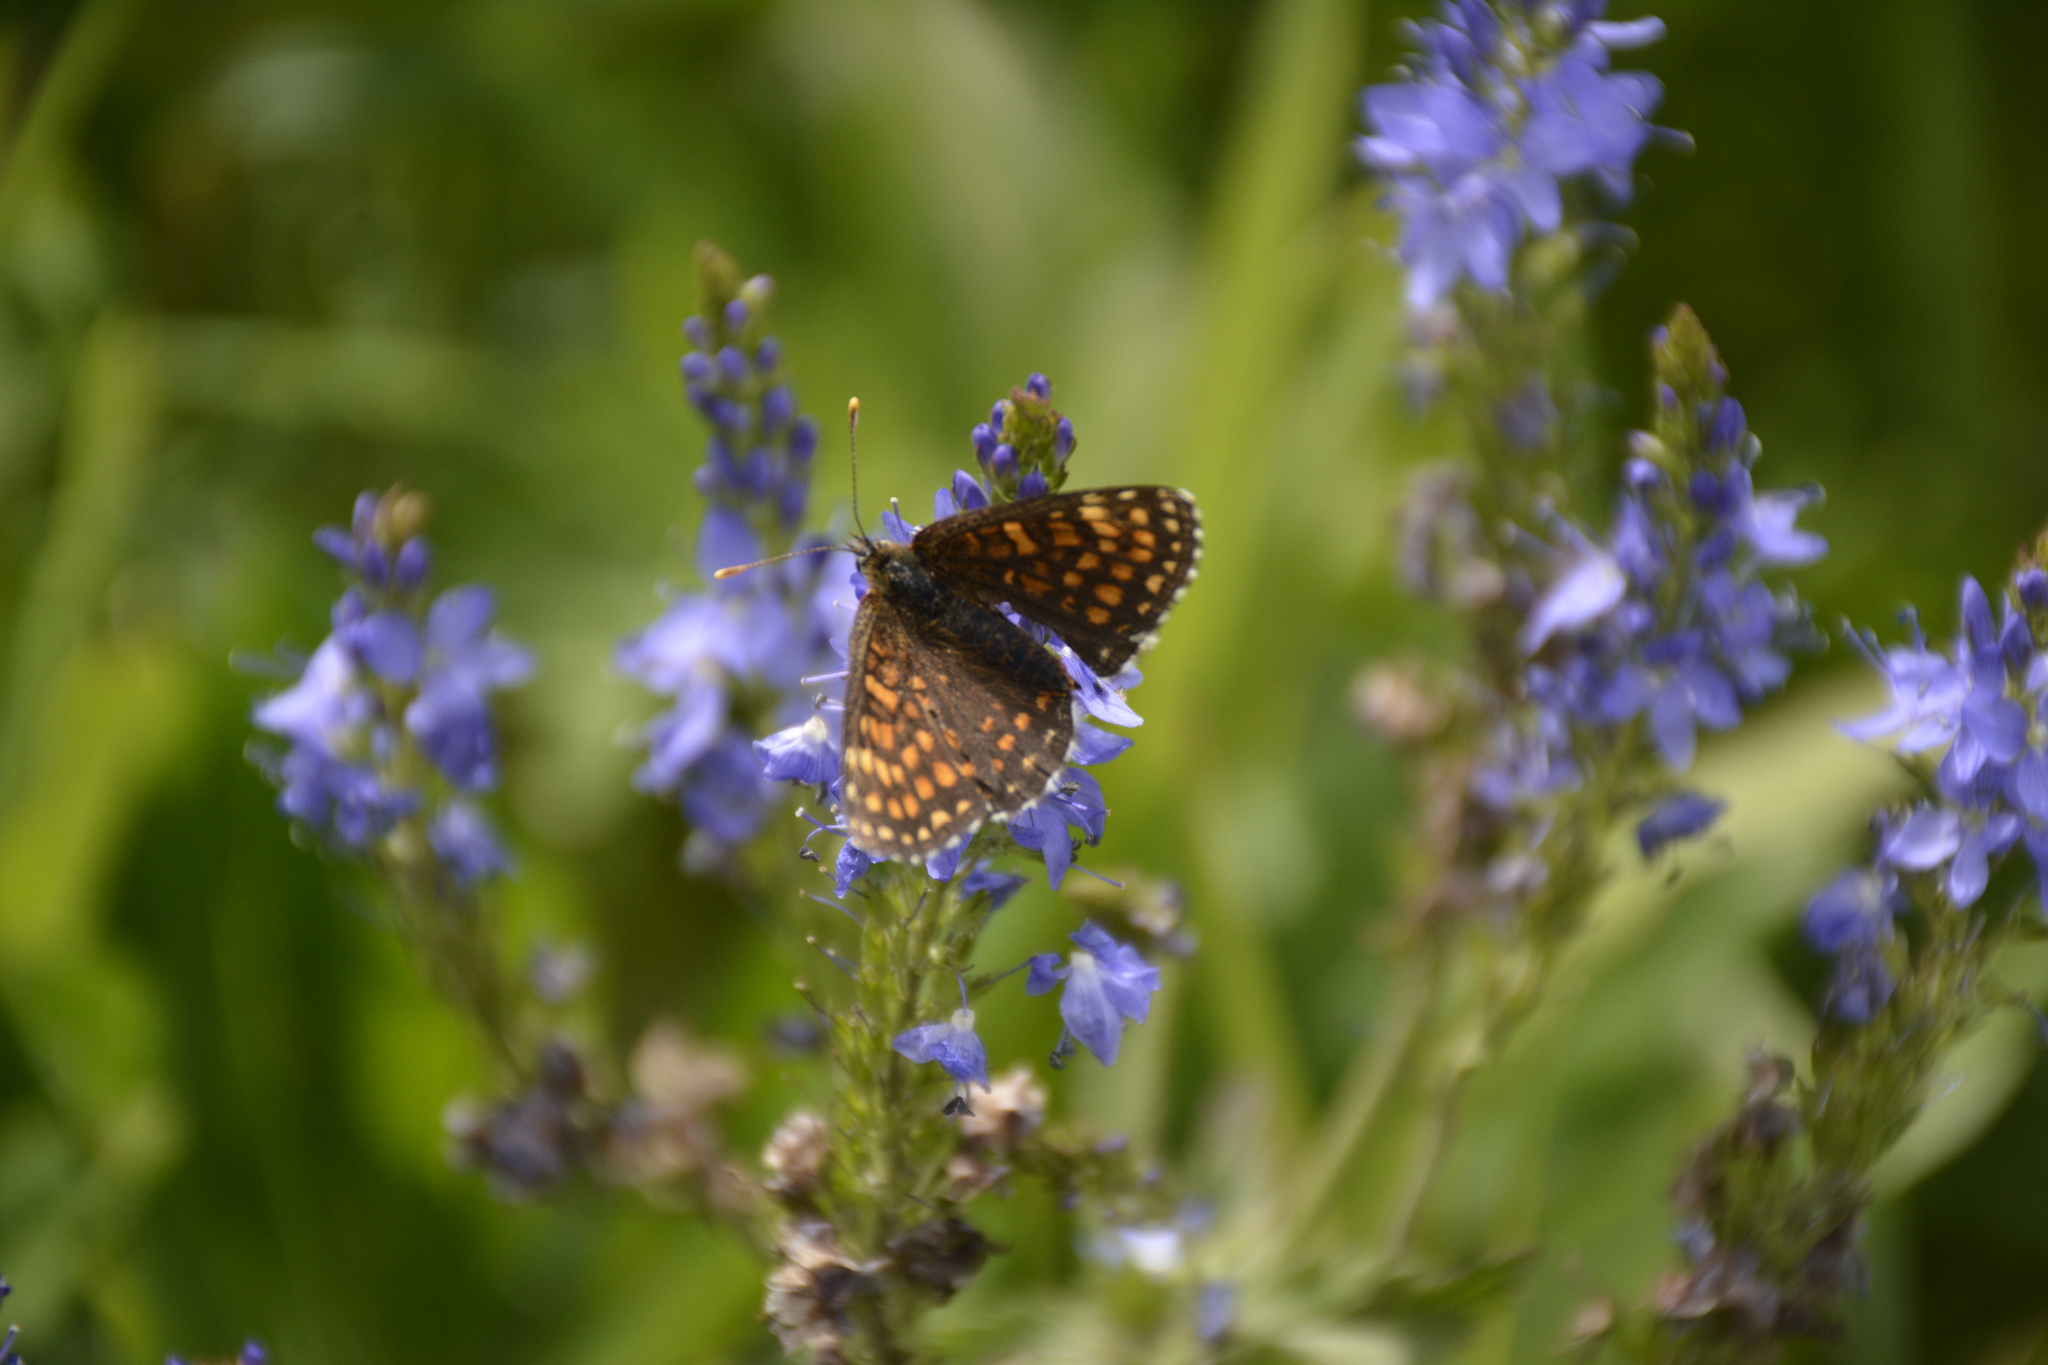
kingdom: Animalia
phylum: Arthropoda
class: Insecta
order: Lepidoptera
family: Nymphalidae
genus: Melitaea
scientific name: Melitaea
